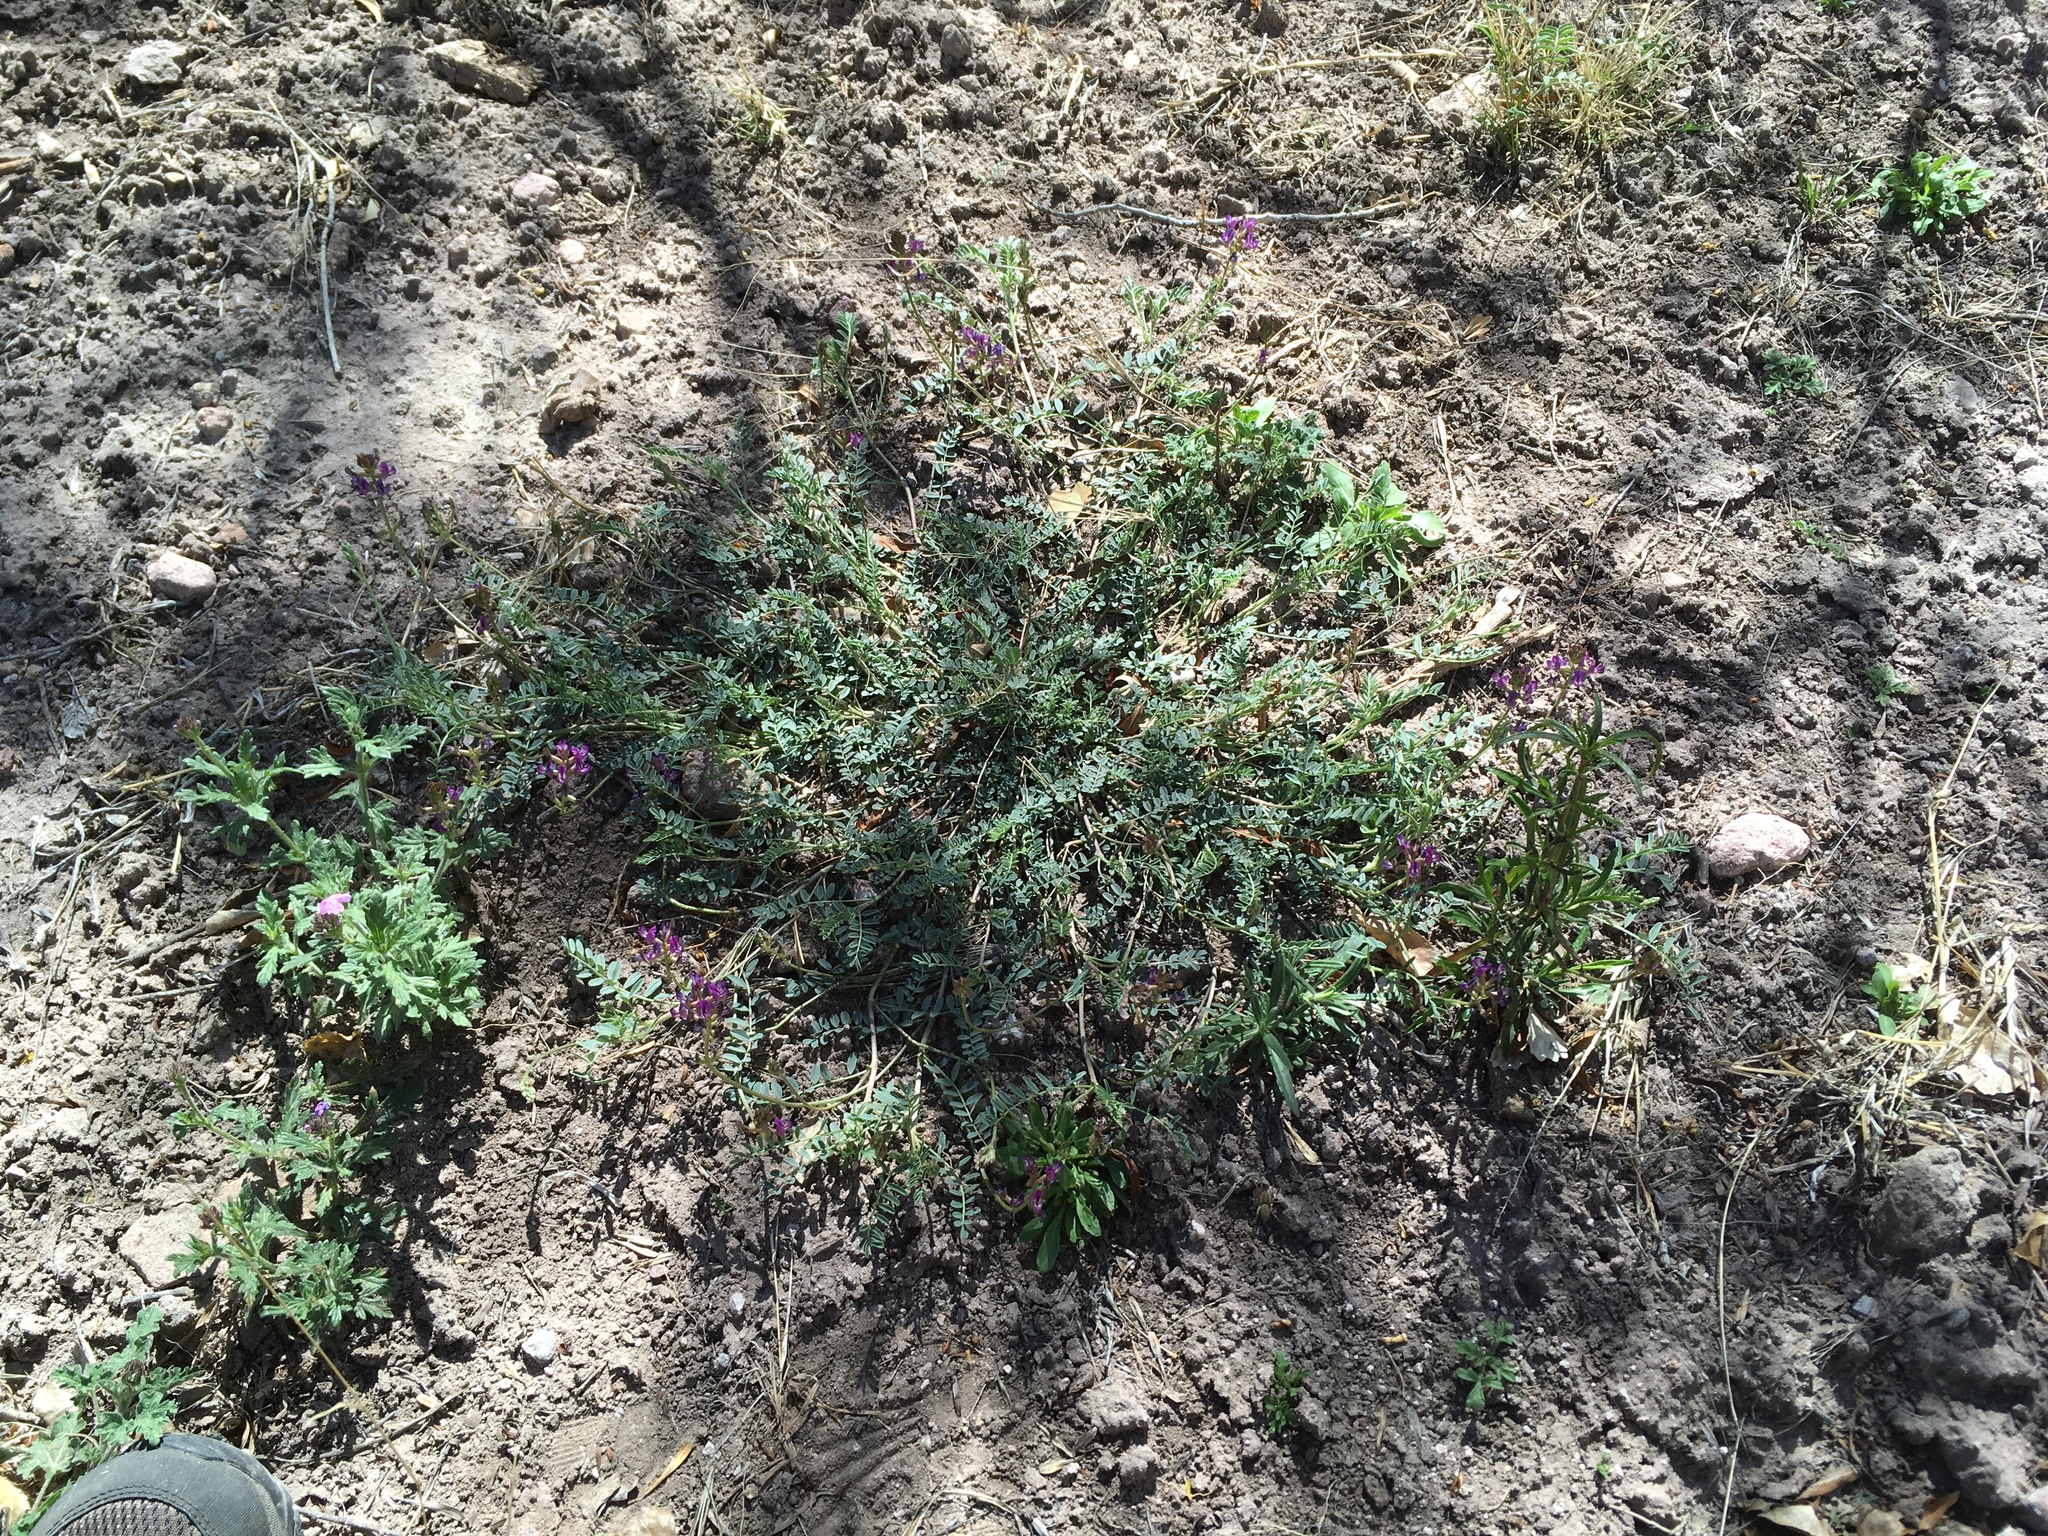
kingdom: Plantae
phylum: Tracheophyta
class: Magnoliopsida
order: Fabales
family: Fabaceae
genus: Astragalus
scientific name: Astragalus nothoxys
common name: Beaked milk-vetch
